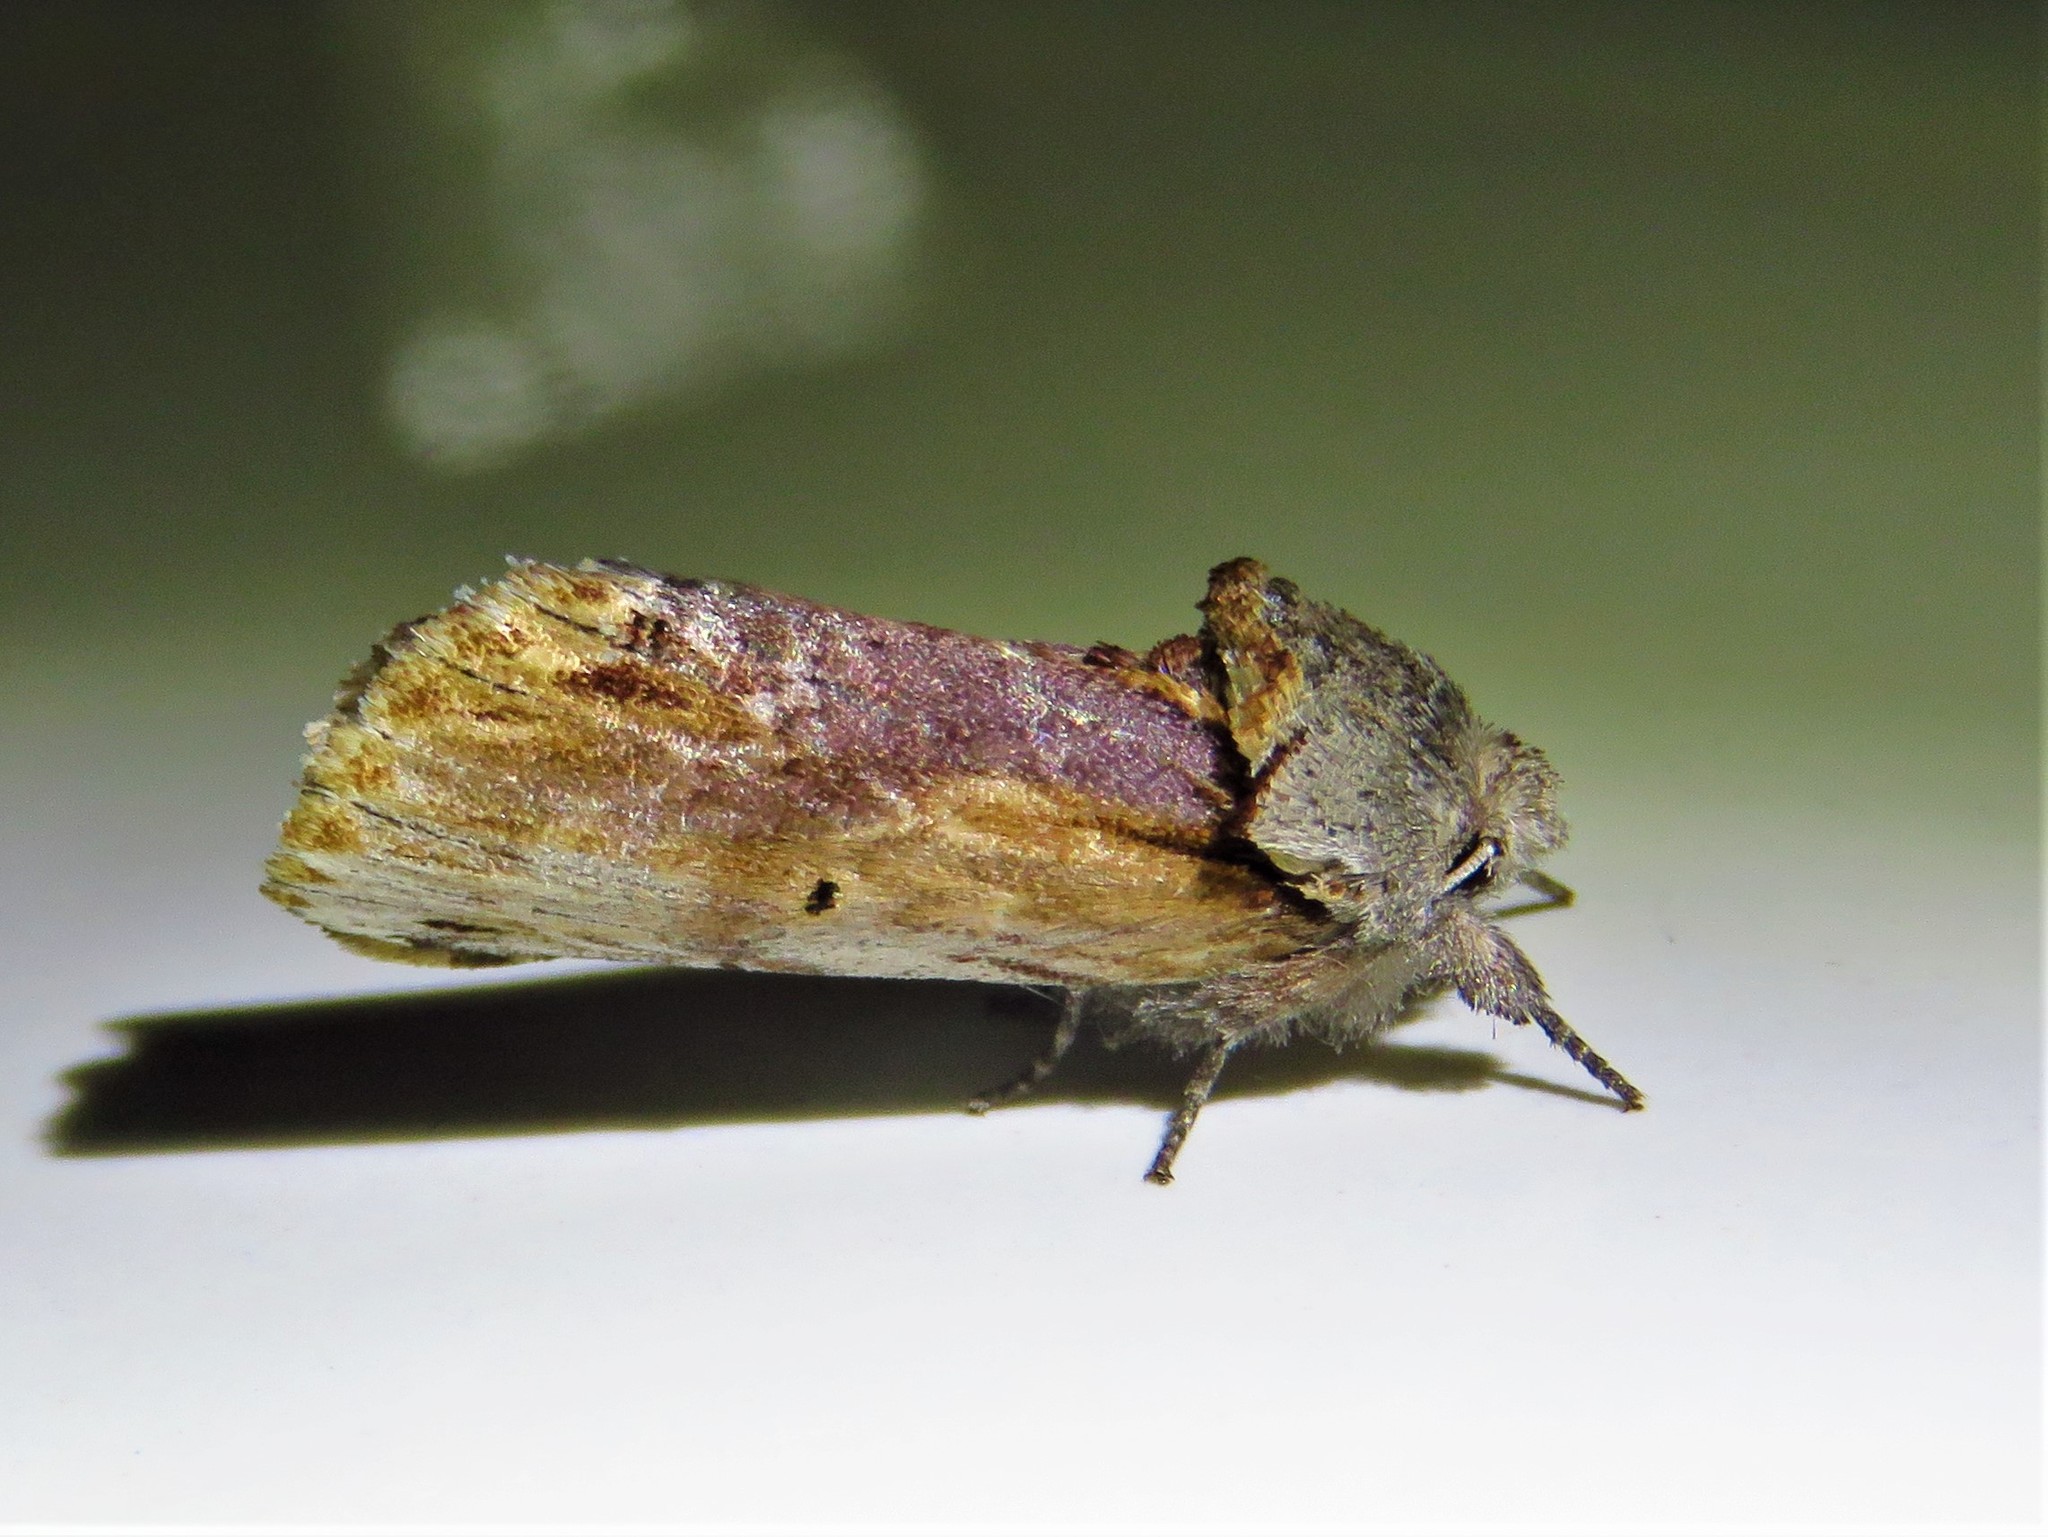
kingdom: Animalia
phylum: Arthropoda
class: Insecta
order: Lepidoptera
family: Notodontidae
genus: Schizura
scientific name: Schizura
